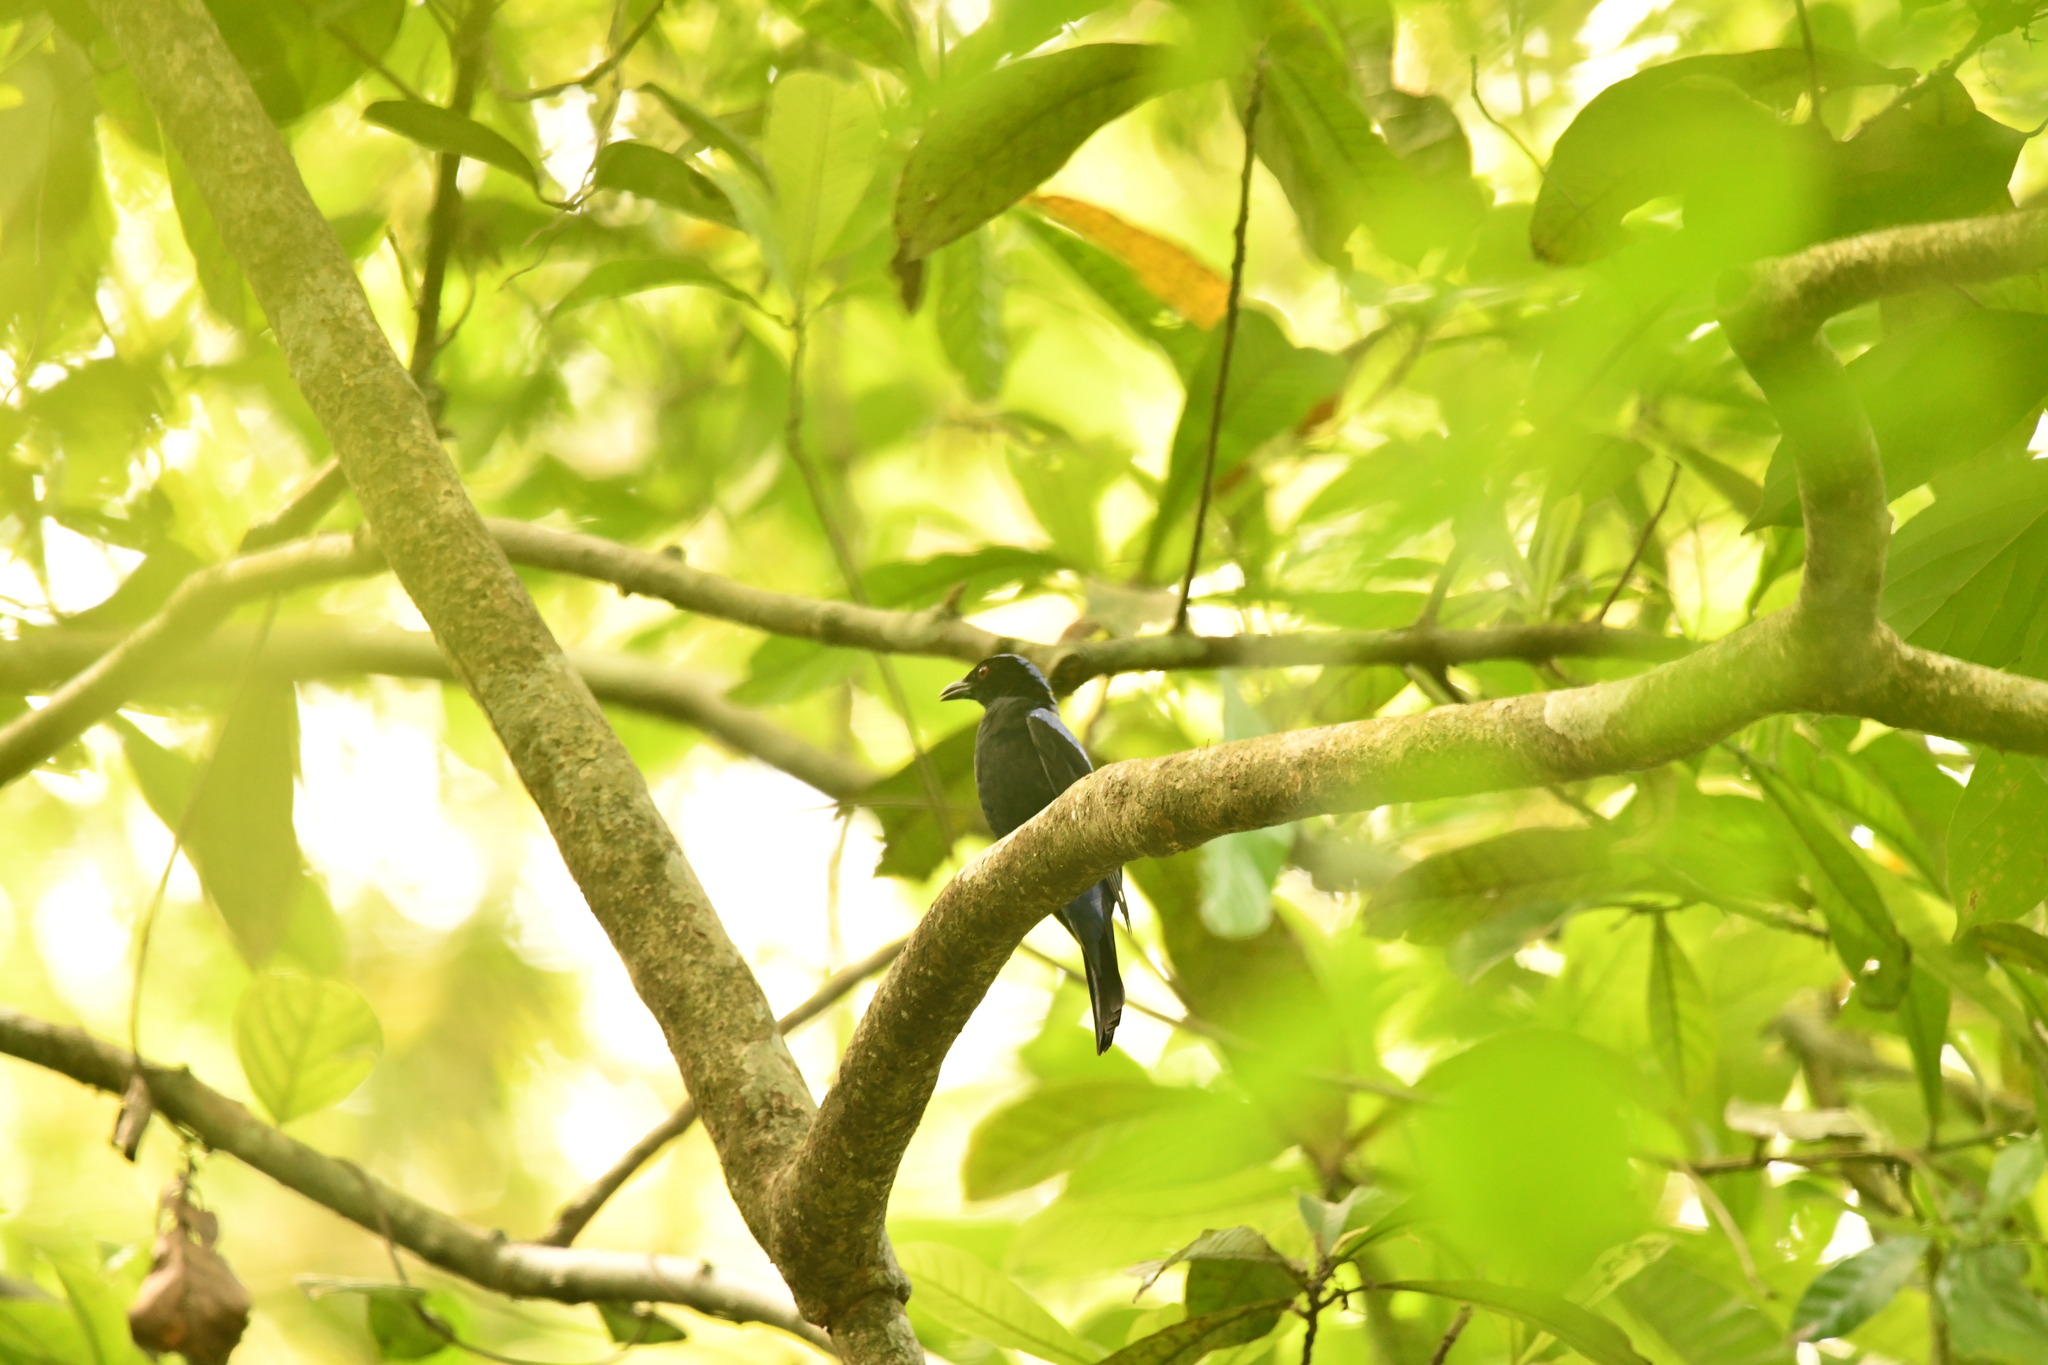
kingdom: Animalia
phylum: Chordata
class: Aves
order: Passeriformes
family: Irenidae
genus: Irena
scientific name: Irena puella
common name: Asian fairy-bluebird
